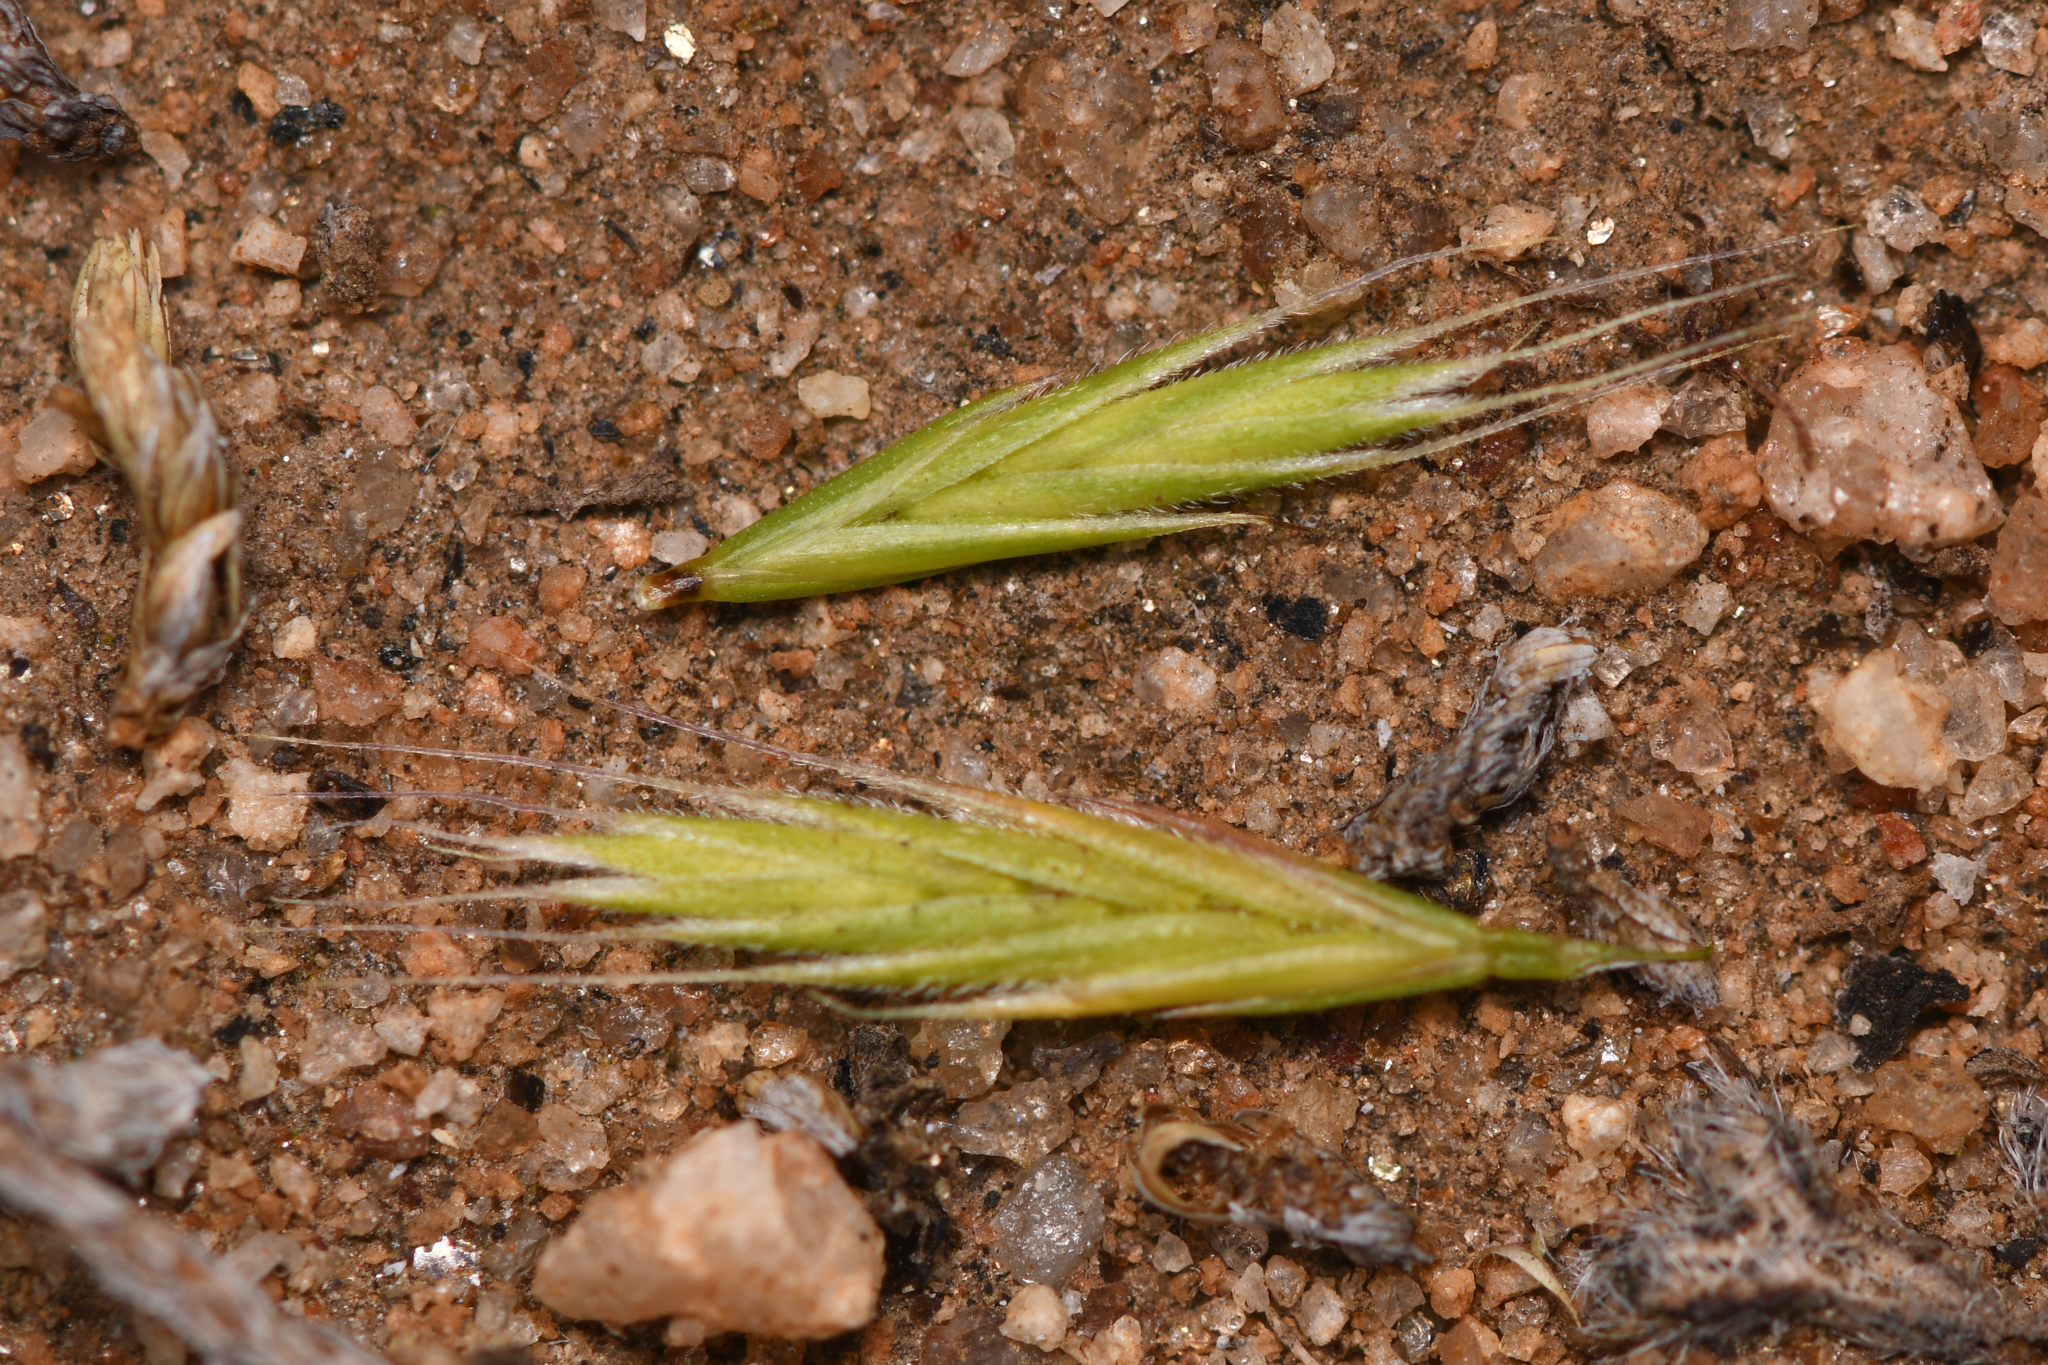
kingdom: Plantae
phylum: Tracheophyta
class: Liliopsida
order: Poales
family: Poaceae
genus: Festuca
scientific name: Festuca octoflora
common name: Sixweeks grass
